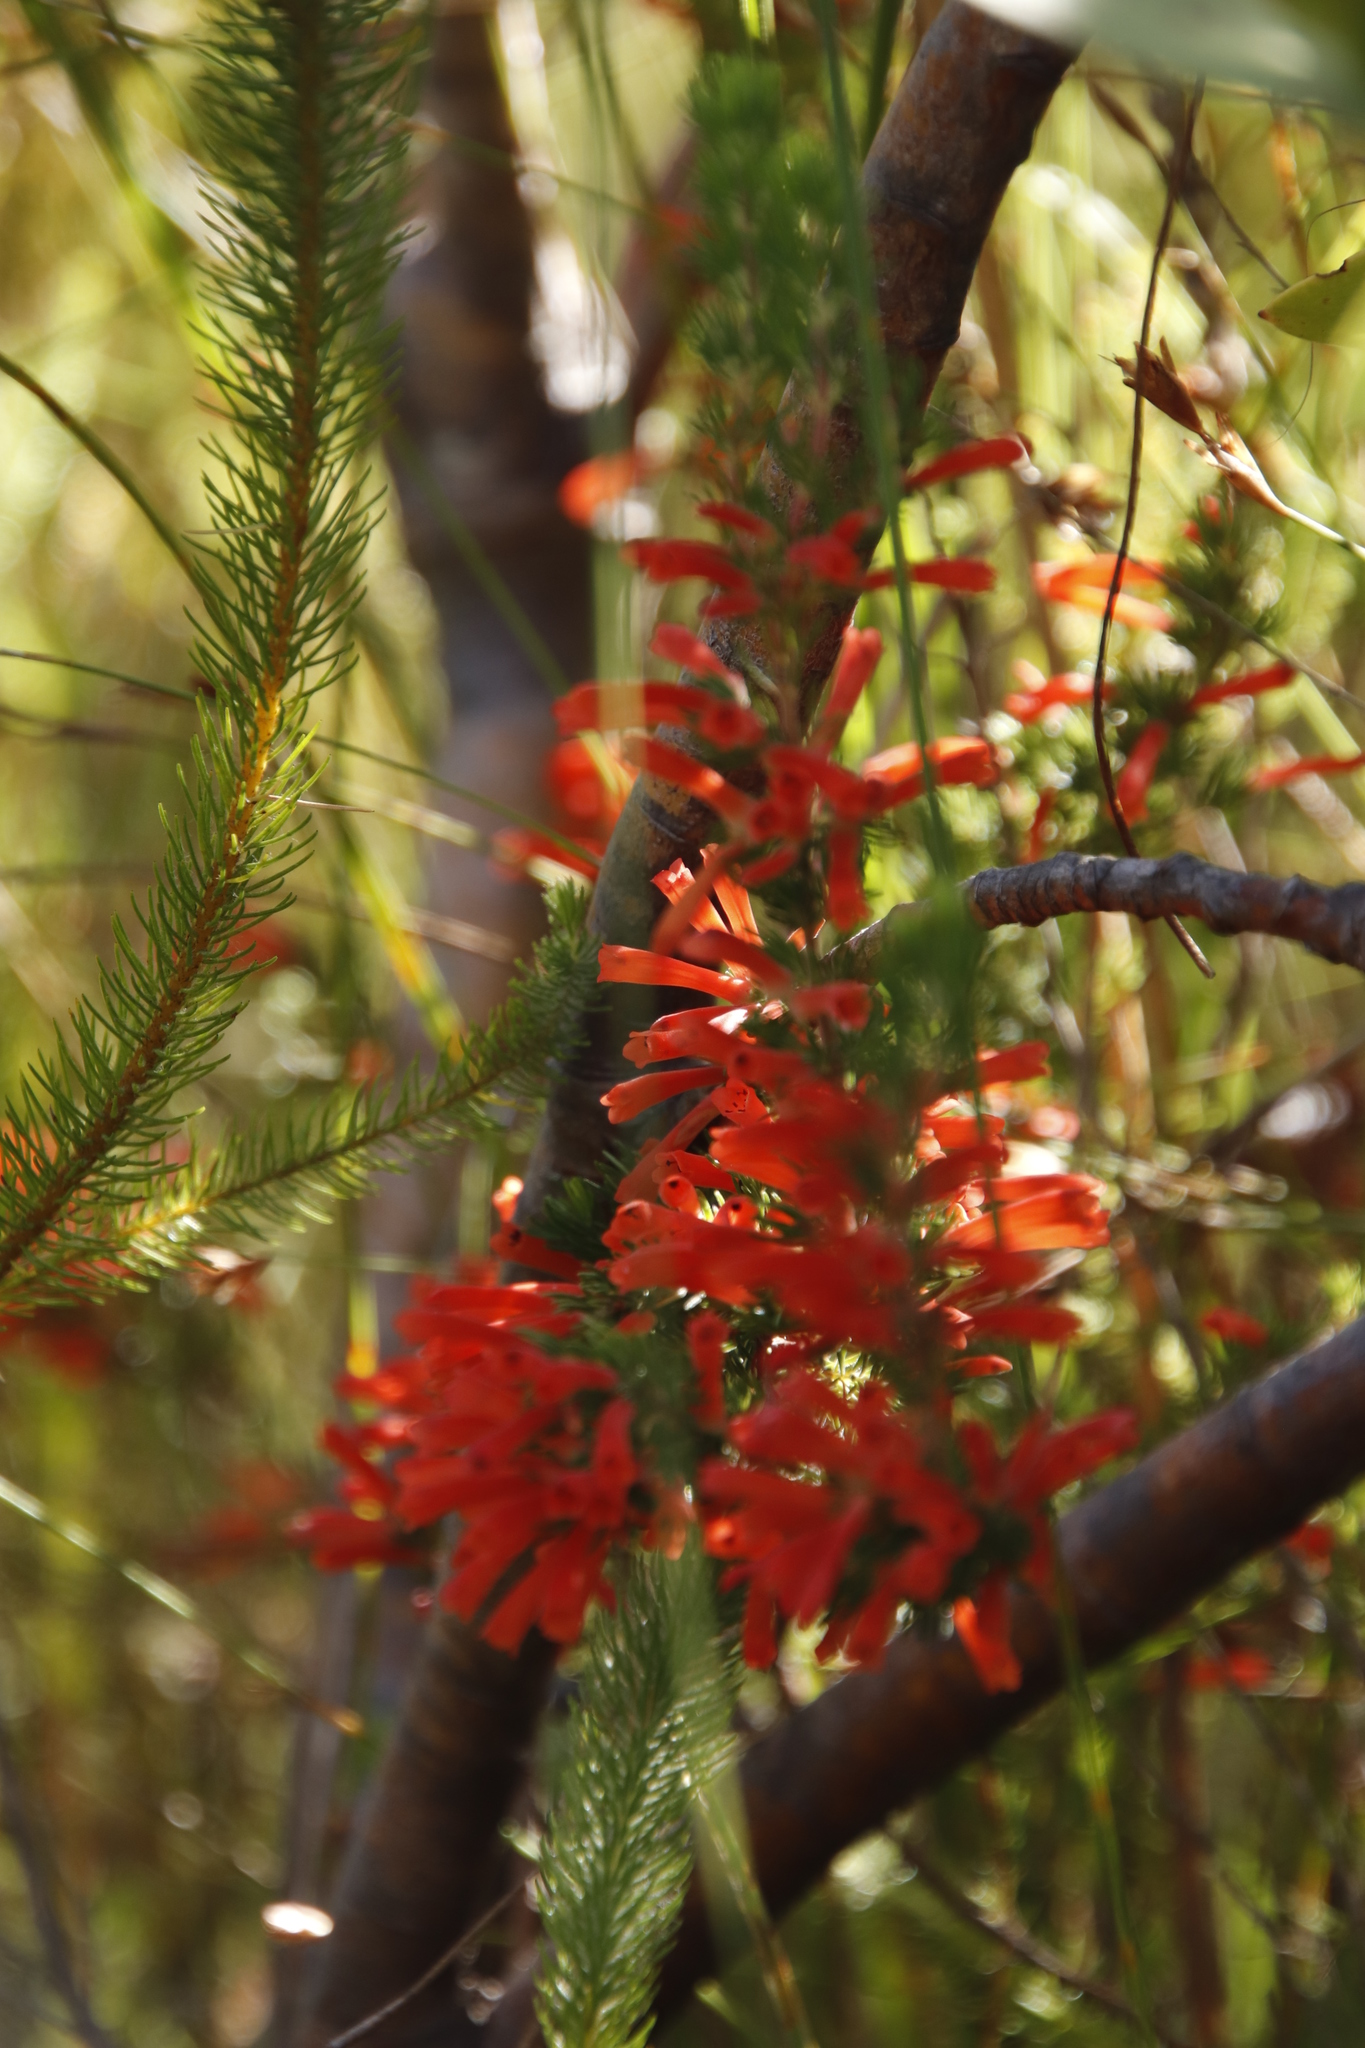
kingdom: Plantae
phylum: Tracheophyta
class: Magnoliopsida
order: Ericales
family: Ericaceae
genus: Erica
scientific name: Erica pillansii
